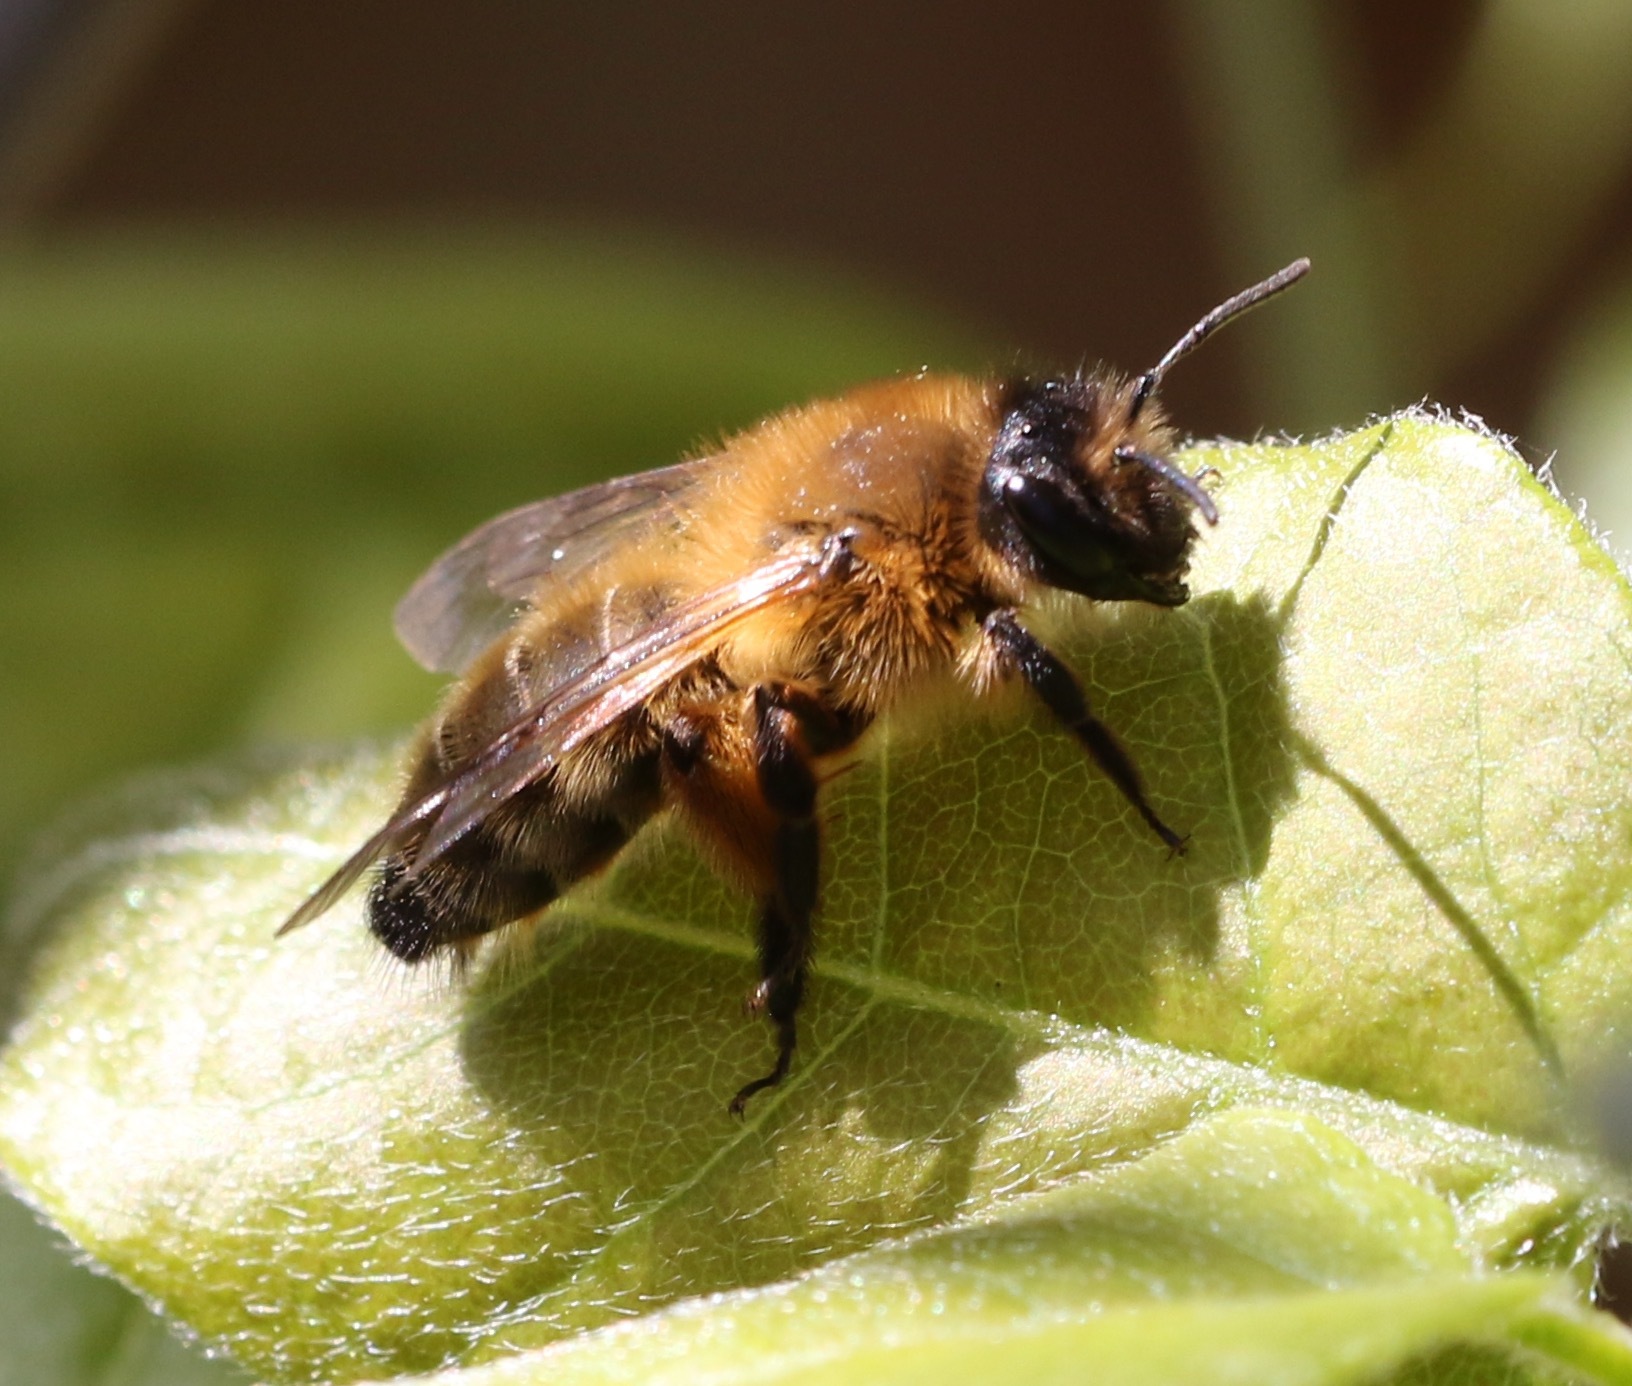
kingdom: Animalia
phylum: Arthropoda
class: Insecta
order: Hymenoptera
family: Andrenidae
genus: Andrena
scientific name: Andrena nigroaenea
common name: Buffish mining bee
